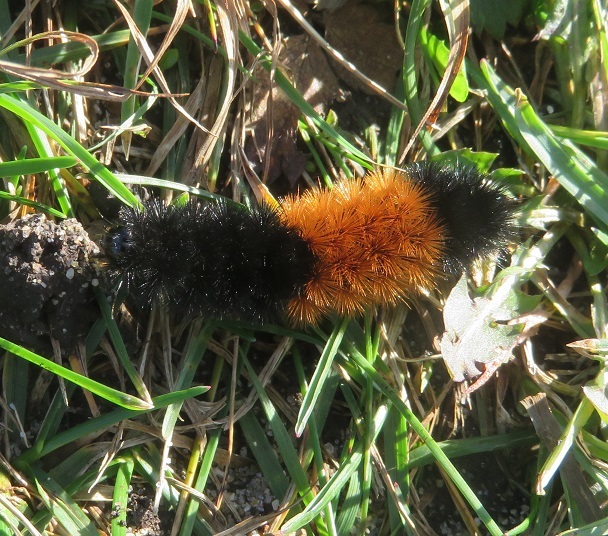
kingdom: Animalia
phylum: Arthropoda
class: Insecta
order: Lepidoptera
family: Erebidae
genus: Pyrrharctia
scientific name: Pyrrharctia isabella
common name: Isabella tiger moth
